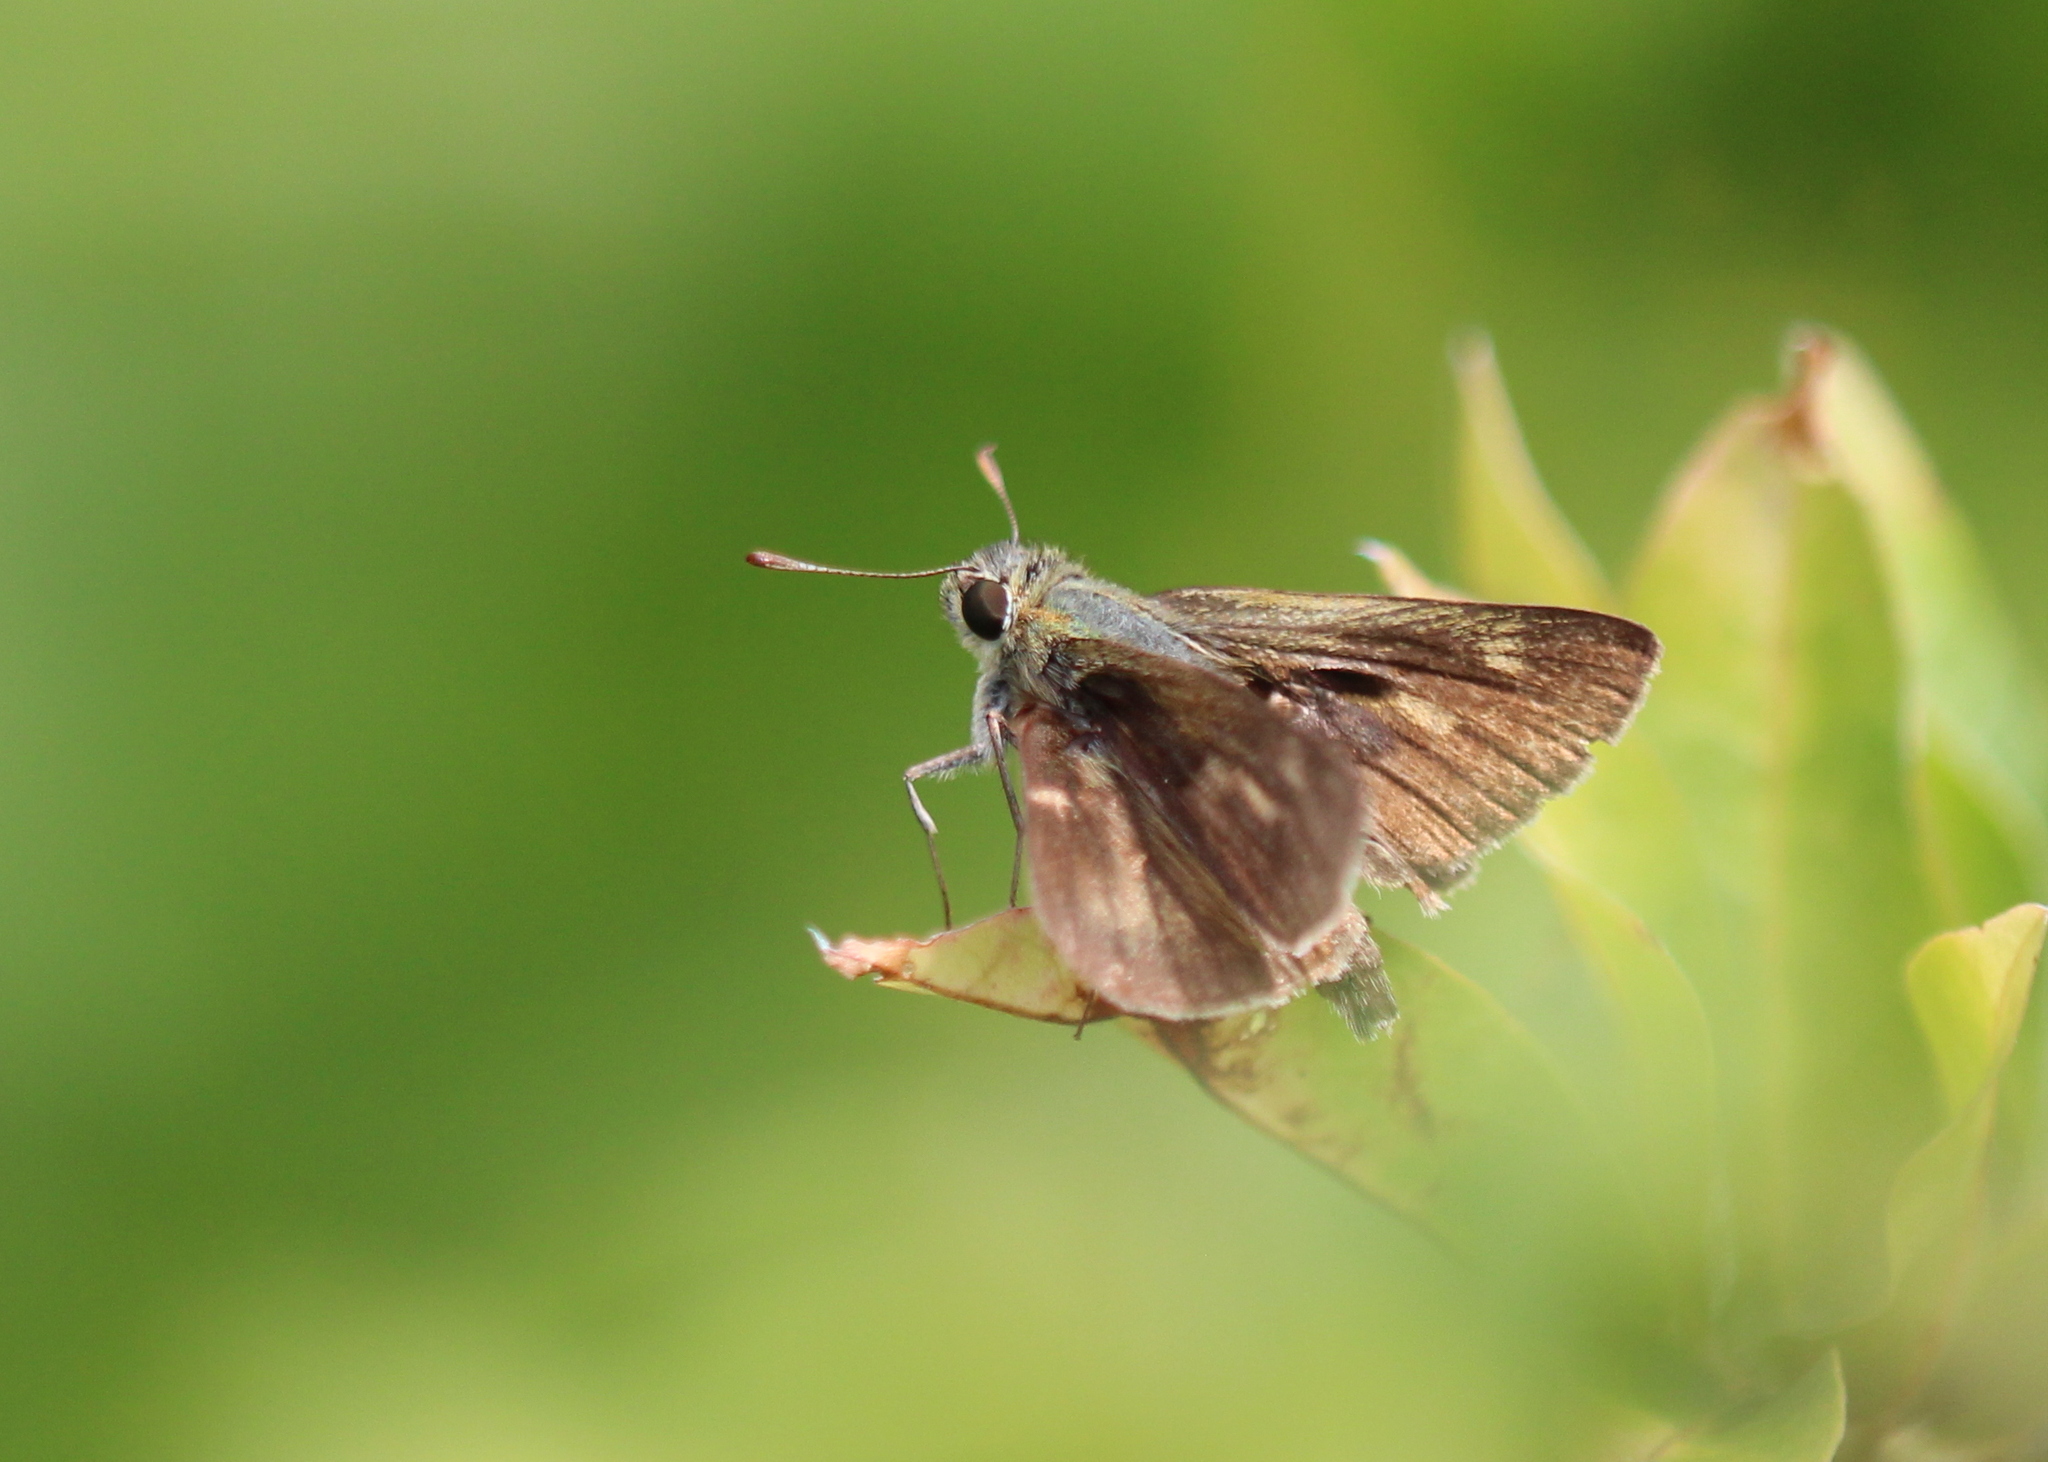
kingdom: Animalia
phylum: Arthropoda
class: Insecta
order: Lepidoptera
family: Hesperiidae
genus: Polites
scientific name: Polites egeremet
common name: Northern broken-dash
